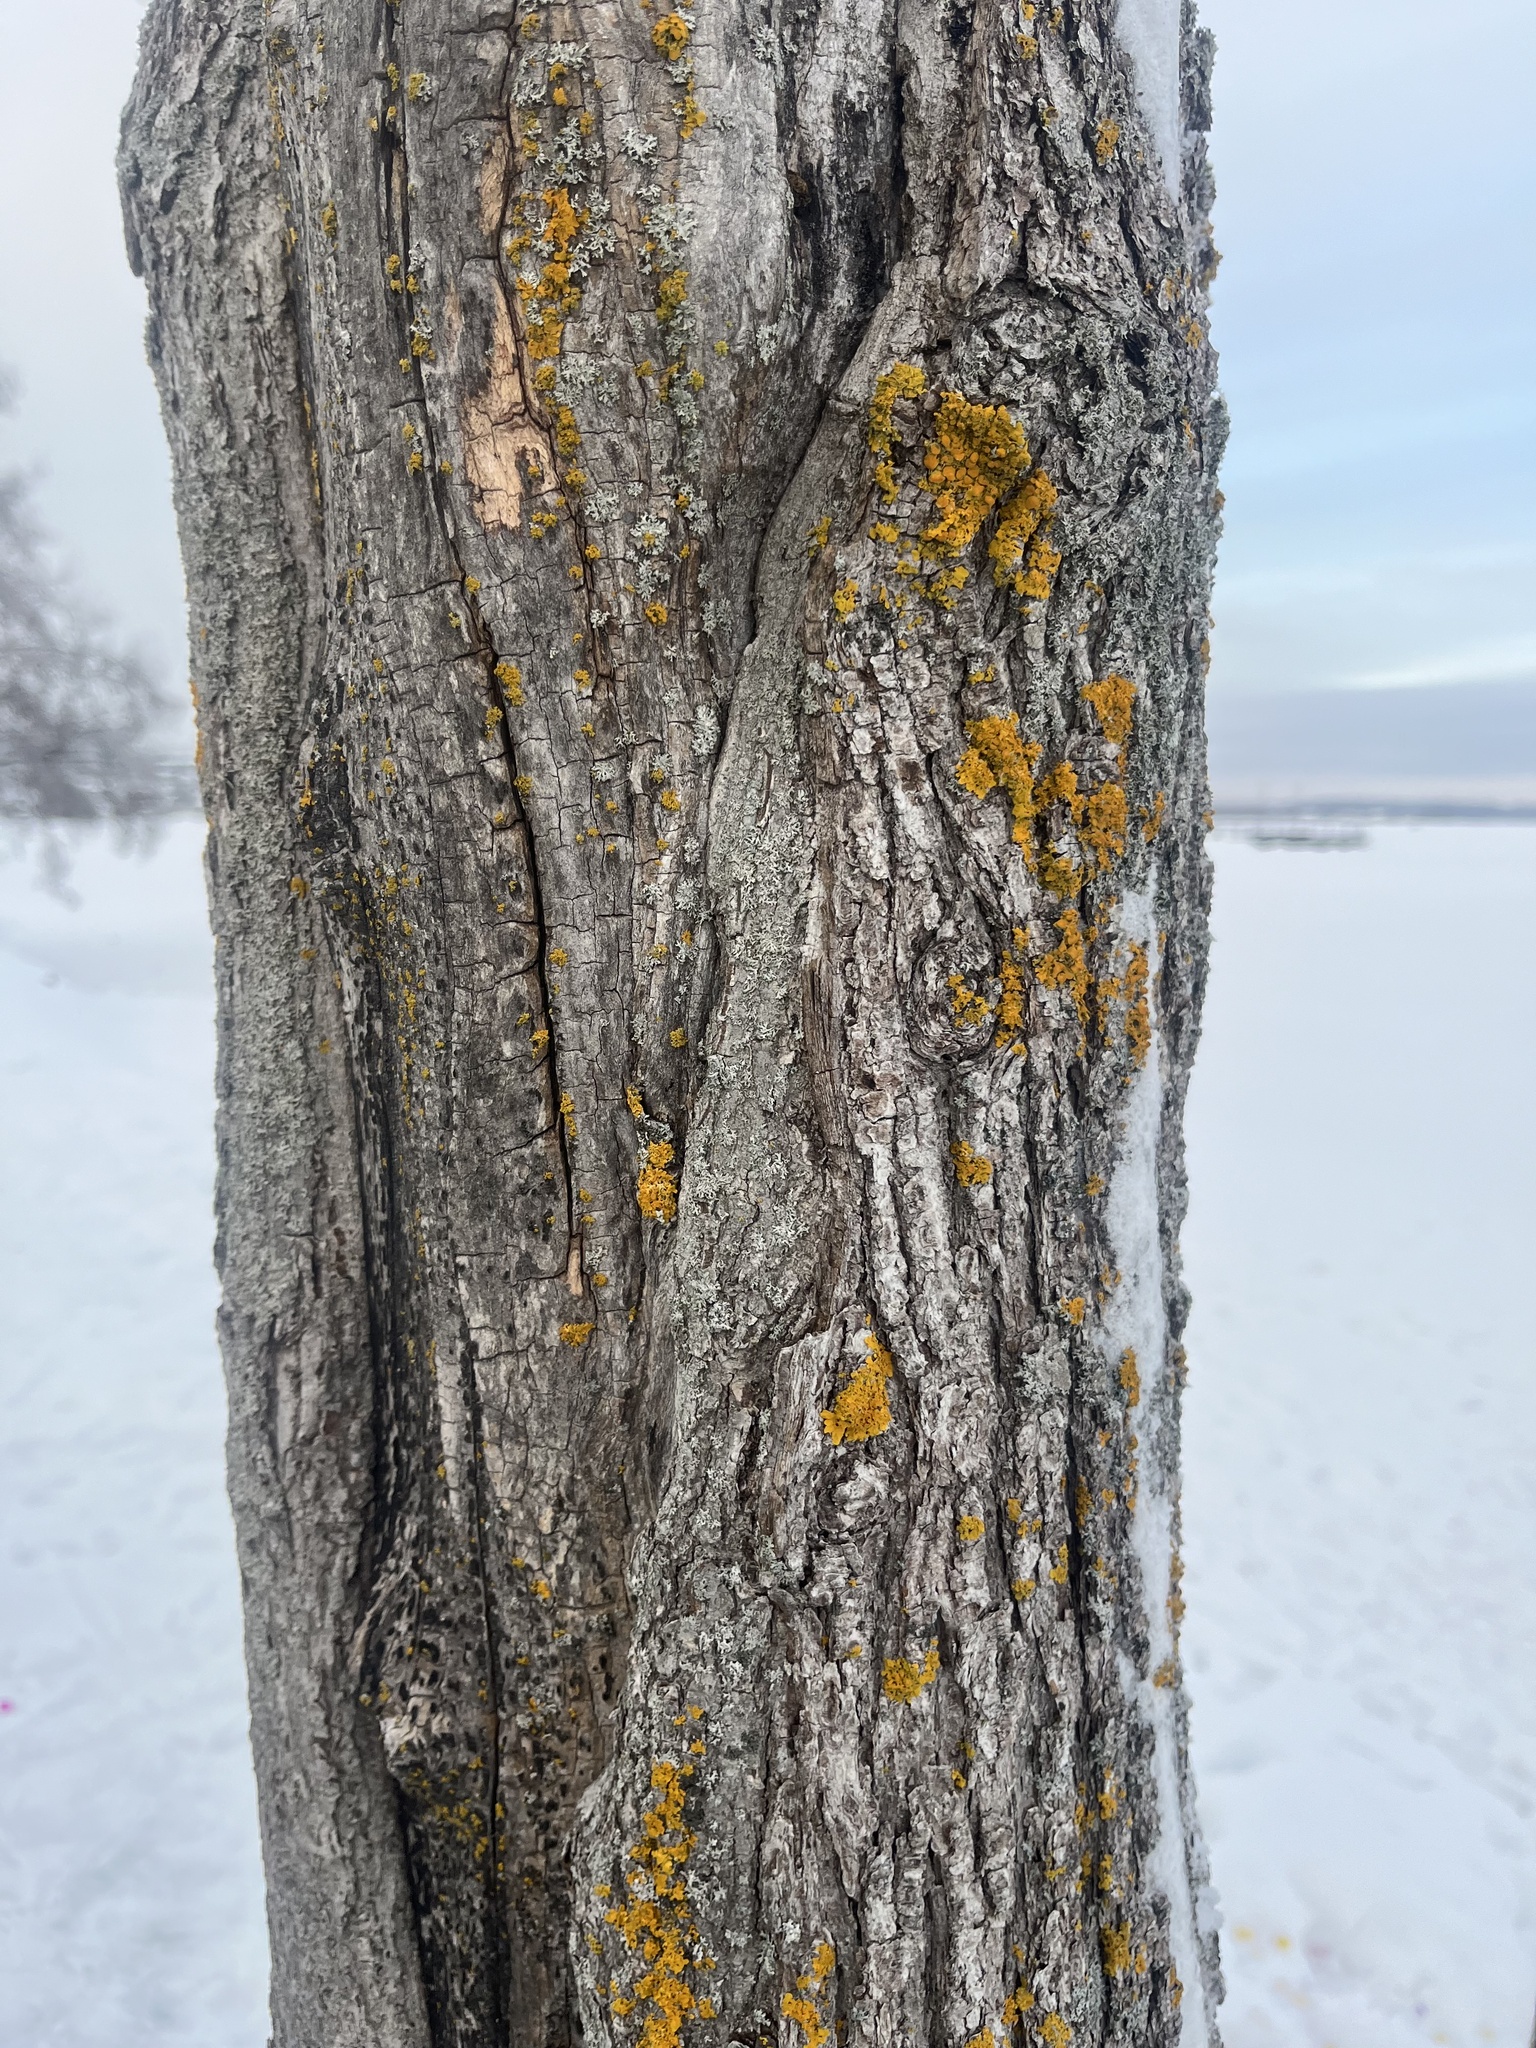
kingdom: Fungi
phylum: Ascomycota
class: Lecanoromycetes
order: Teloschistales
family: Teloschistaceae
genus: Xanthoria
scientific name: Xanthoria parietina
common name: Common orange lichen
